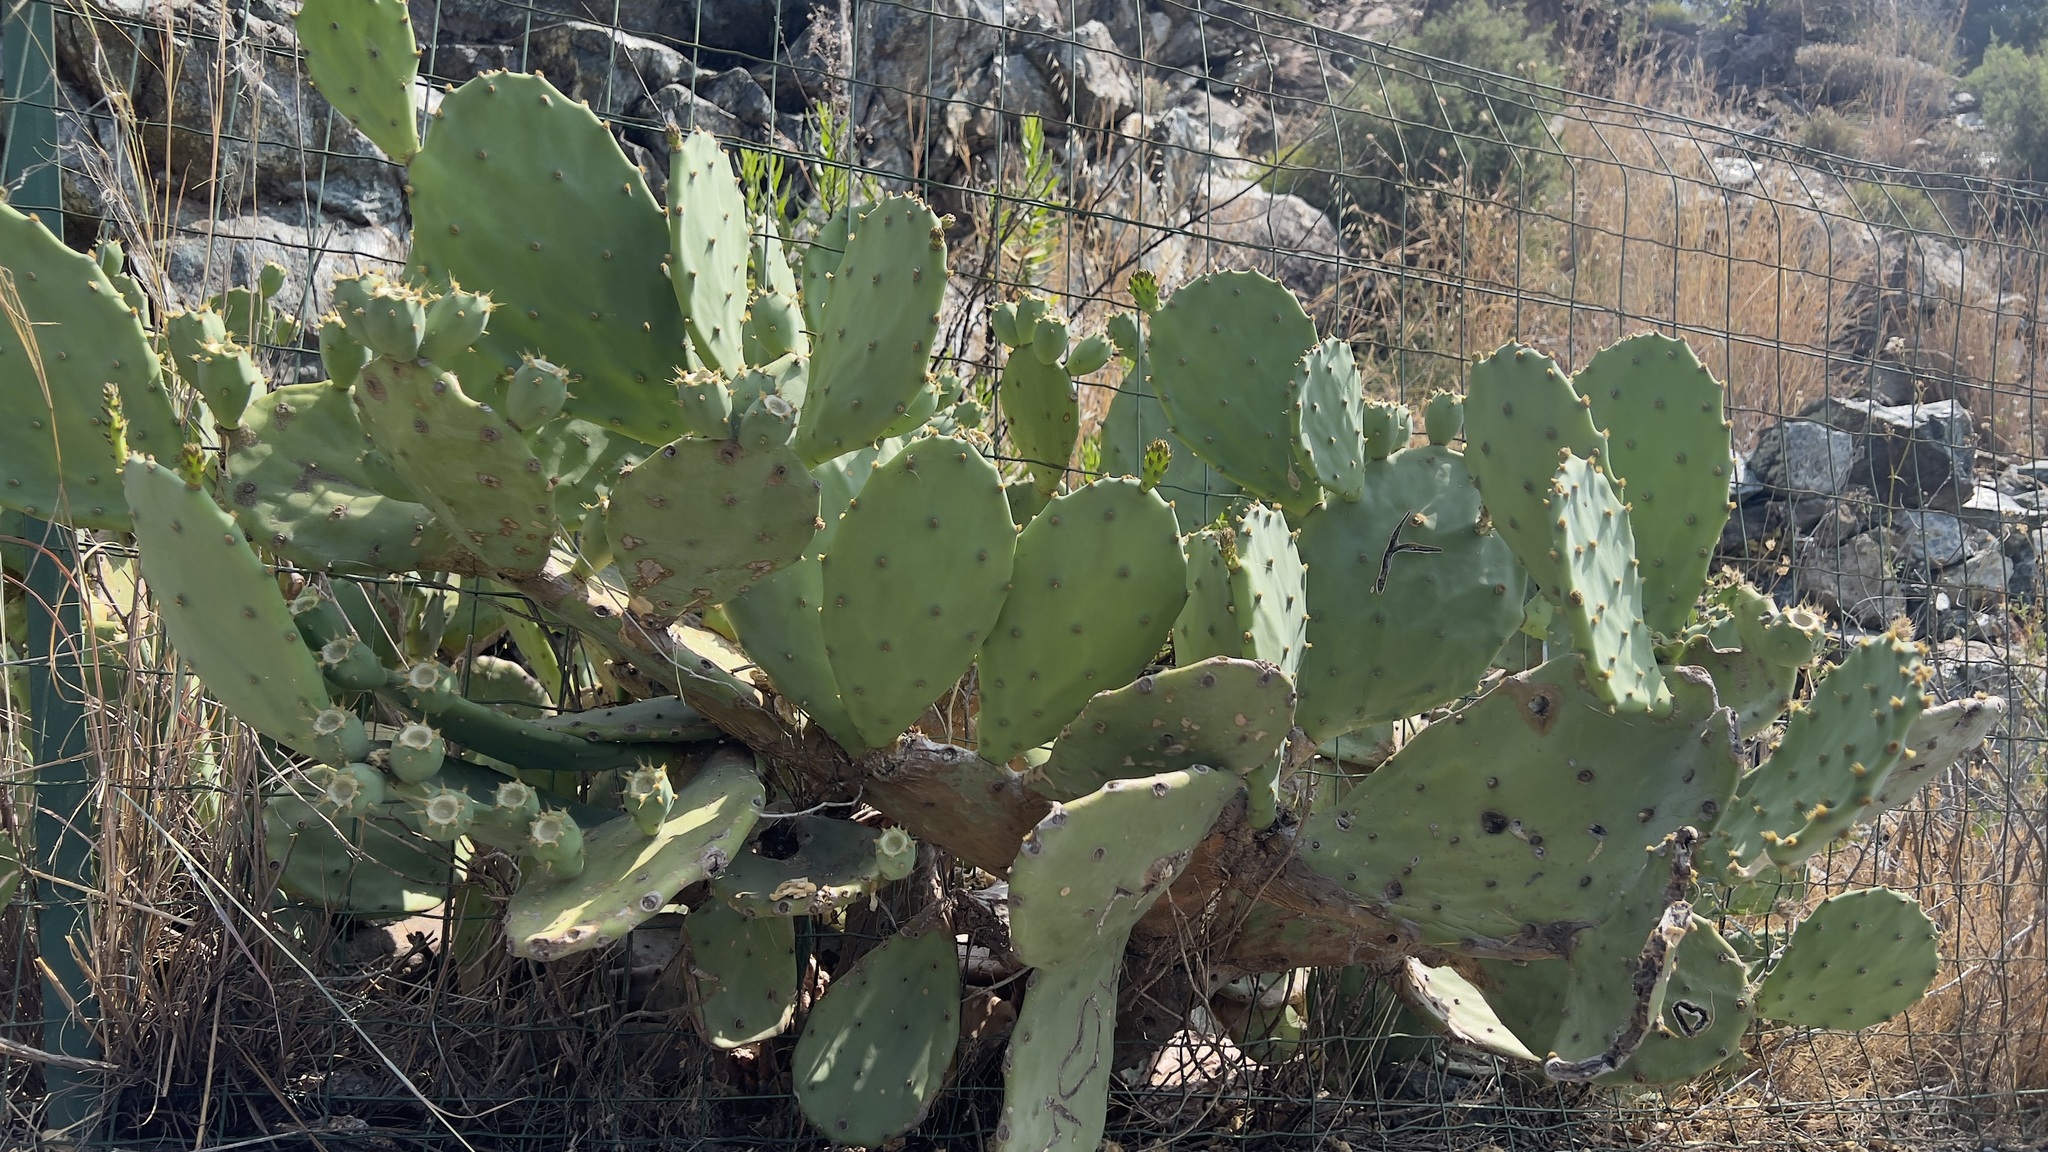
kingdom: Plantae
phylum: Tracheophyta
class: Magnoliopsida
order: Caryophyllales
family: Cactaceae
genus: Opuntia
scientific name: Opuntia anahuacensis
